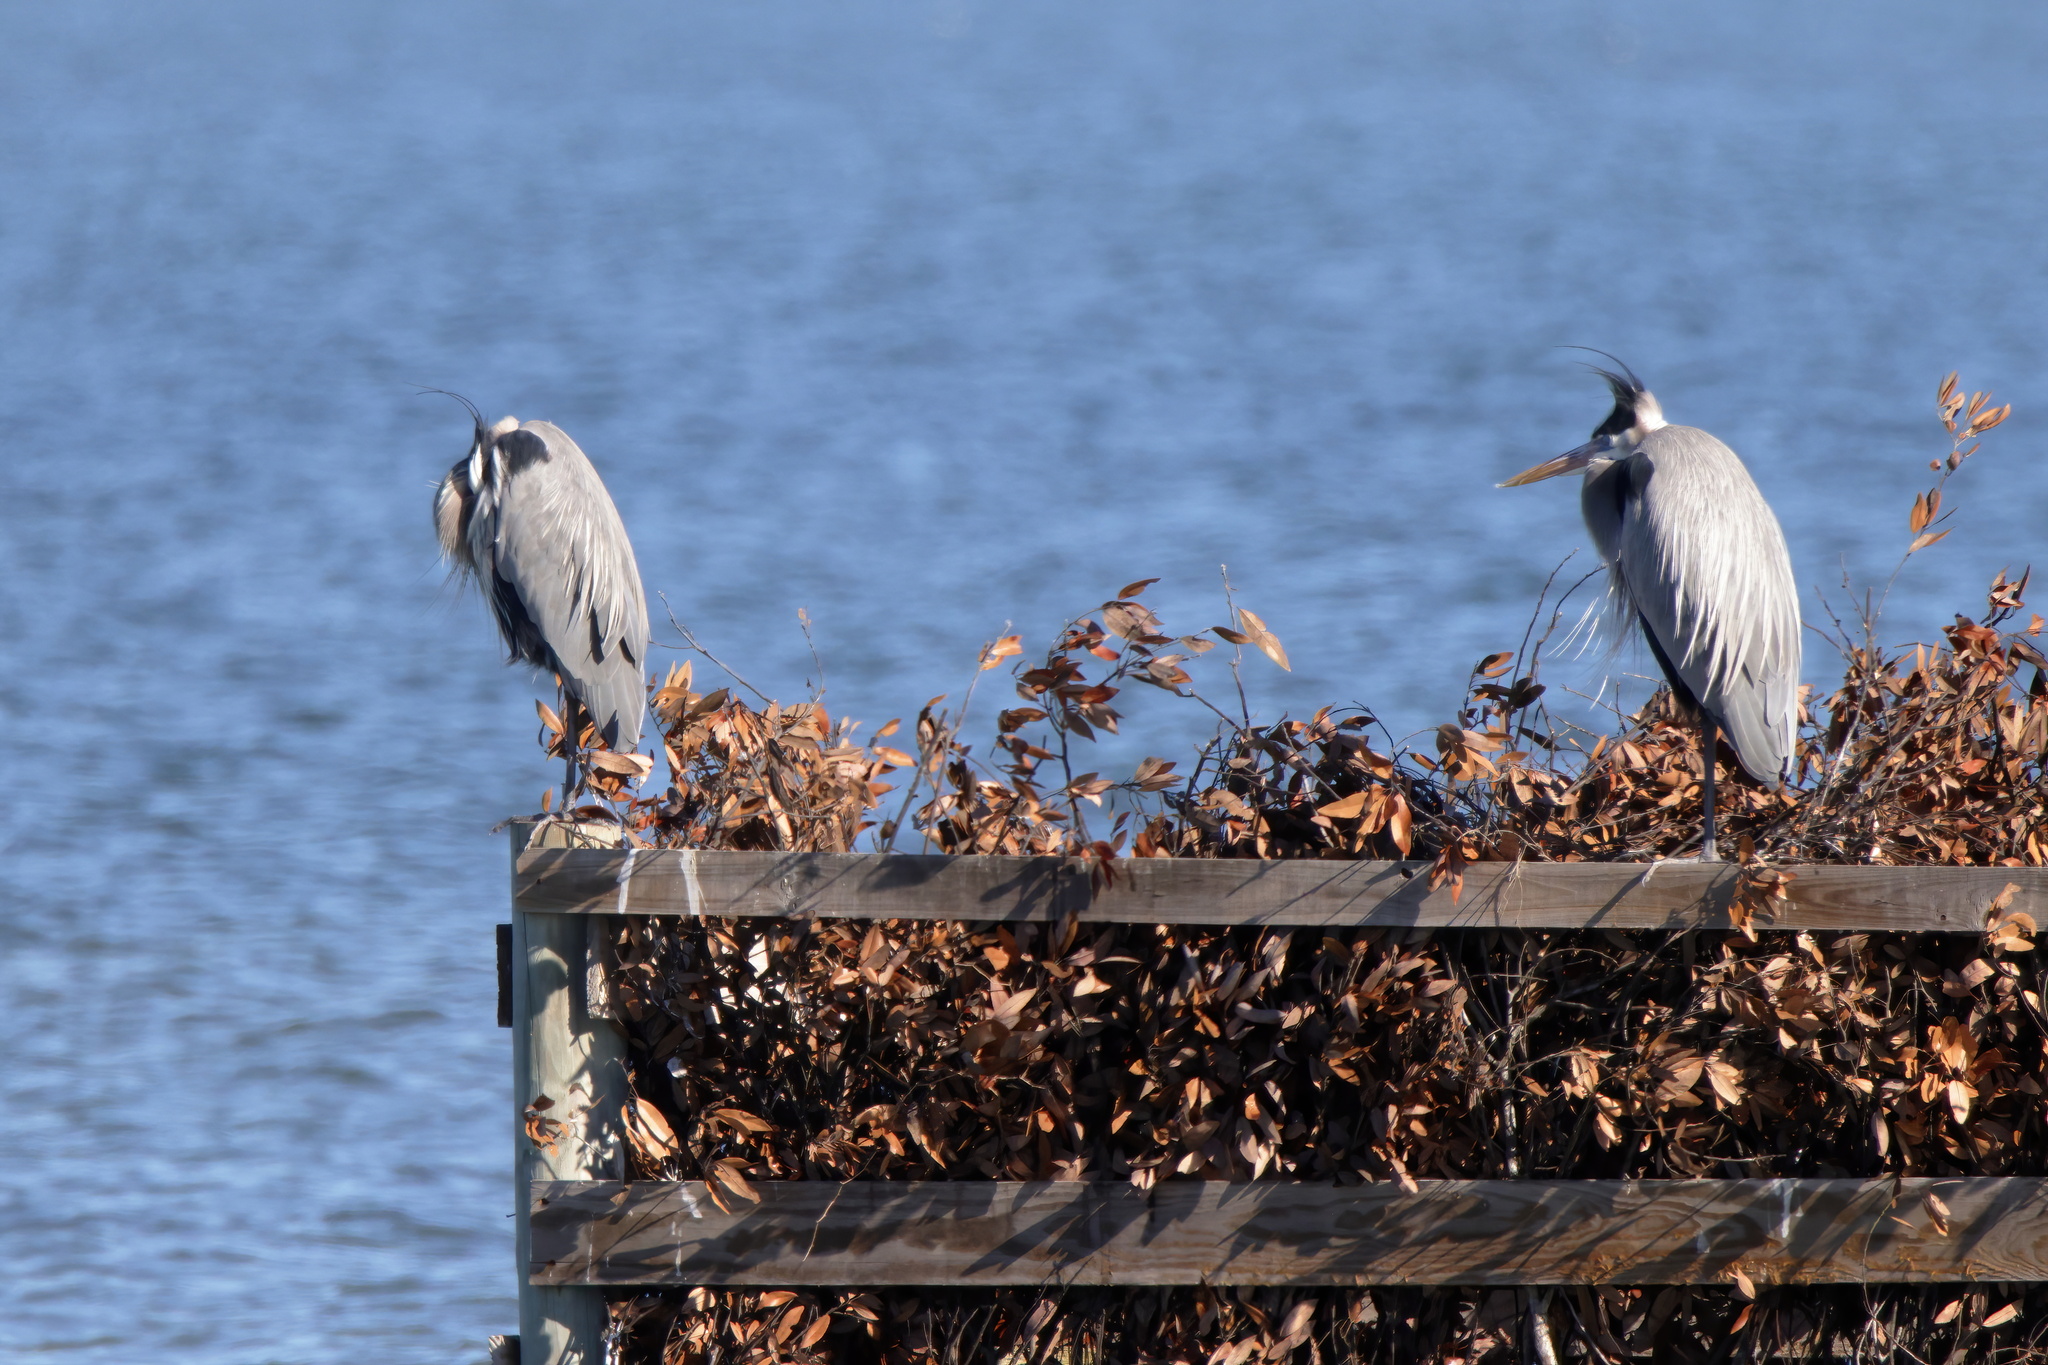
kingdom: Animalia
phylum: Chordata
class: Aves
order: Pelecaniformes
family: Ardeidae
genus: Ardea
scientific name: Ardea herodias
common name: Great blue heron
